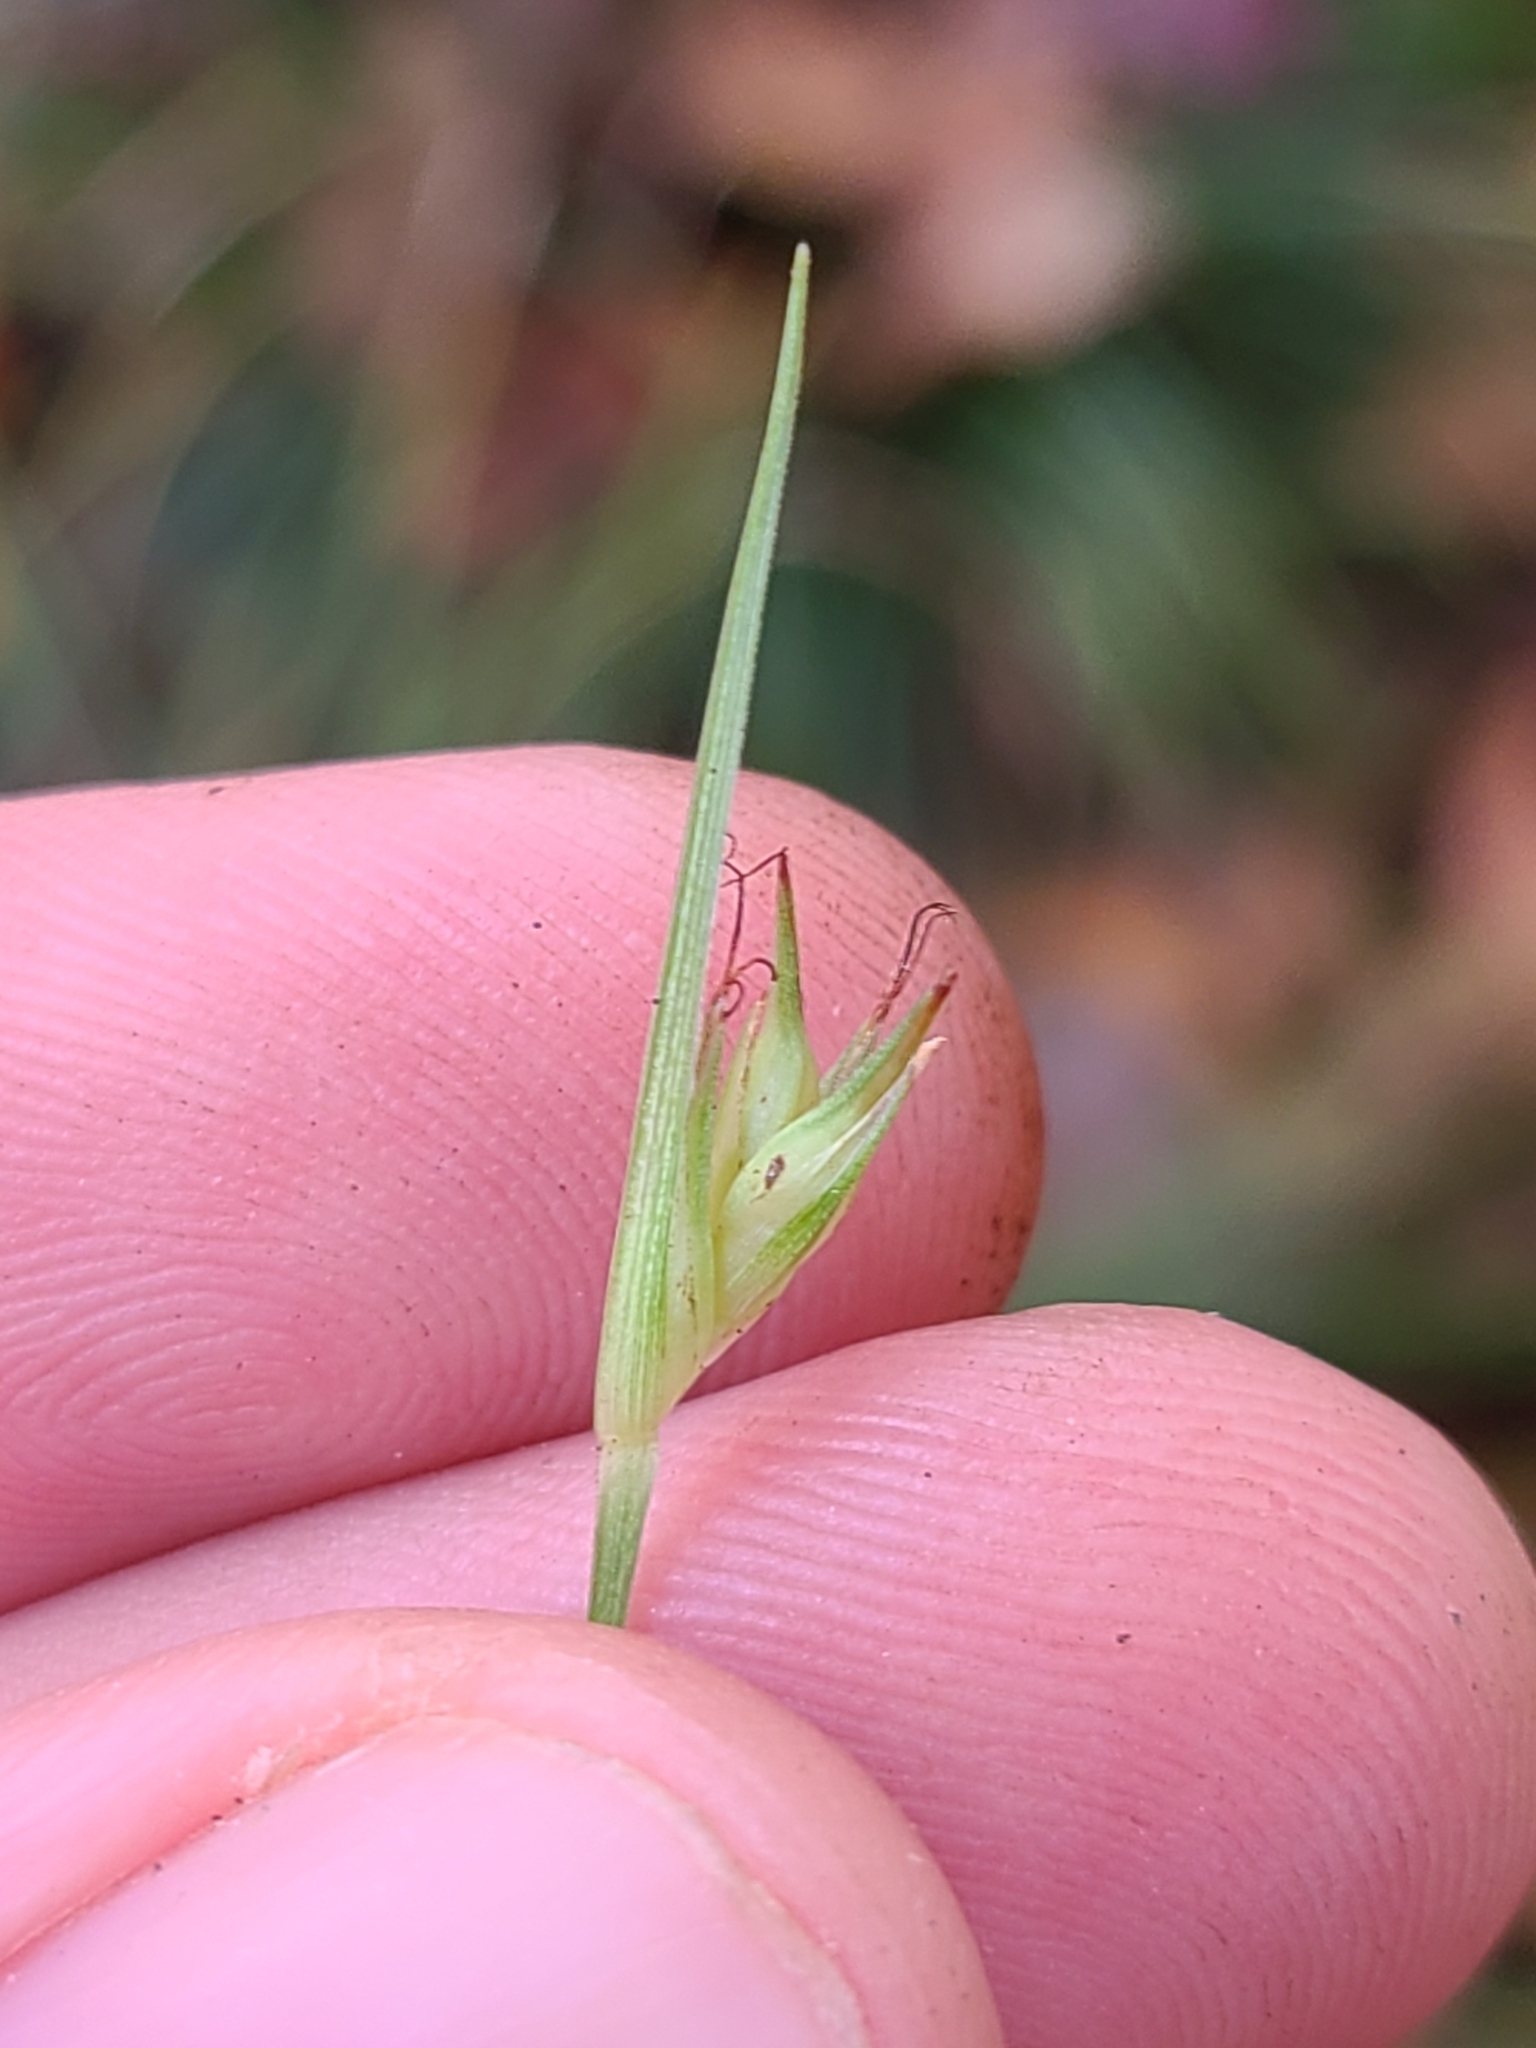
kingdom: Plantae
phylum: Tracheophyta
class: Liliopsida
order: Poales
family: Cyperaceae
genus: Carex
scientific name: Carex basiantha
